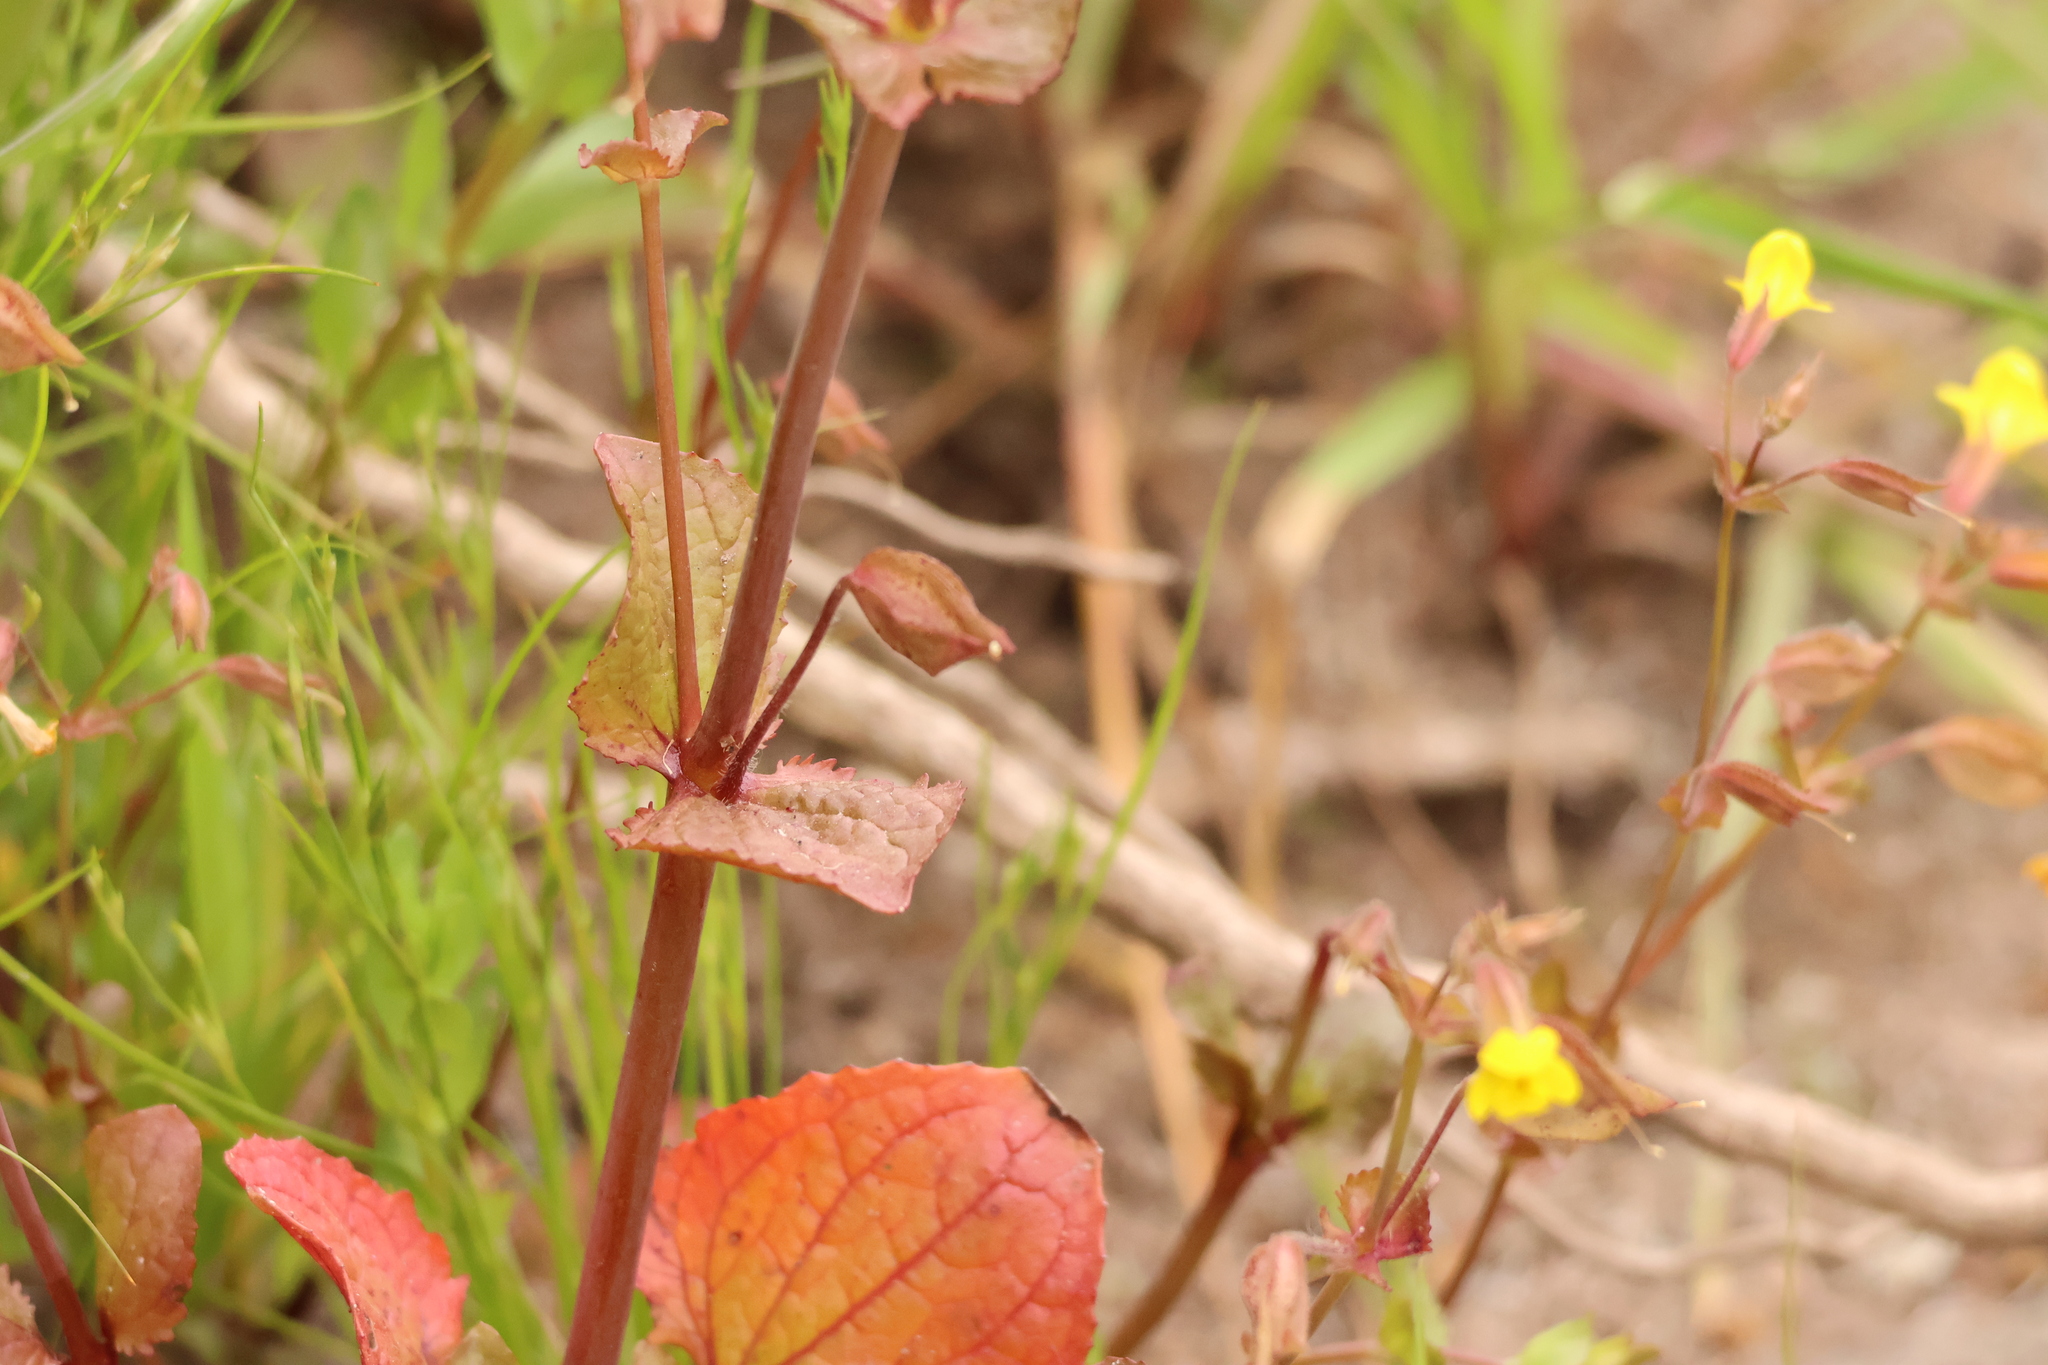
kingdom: Plantae
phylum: Tracheophyta
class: Magnoliopsida
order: Lamiales
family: Phrymaceae
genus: Erythranthe
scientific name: Erythranthe guttata
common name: Monkeyflower
